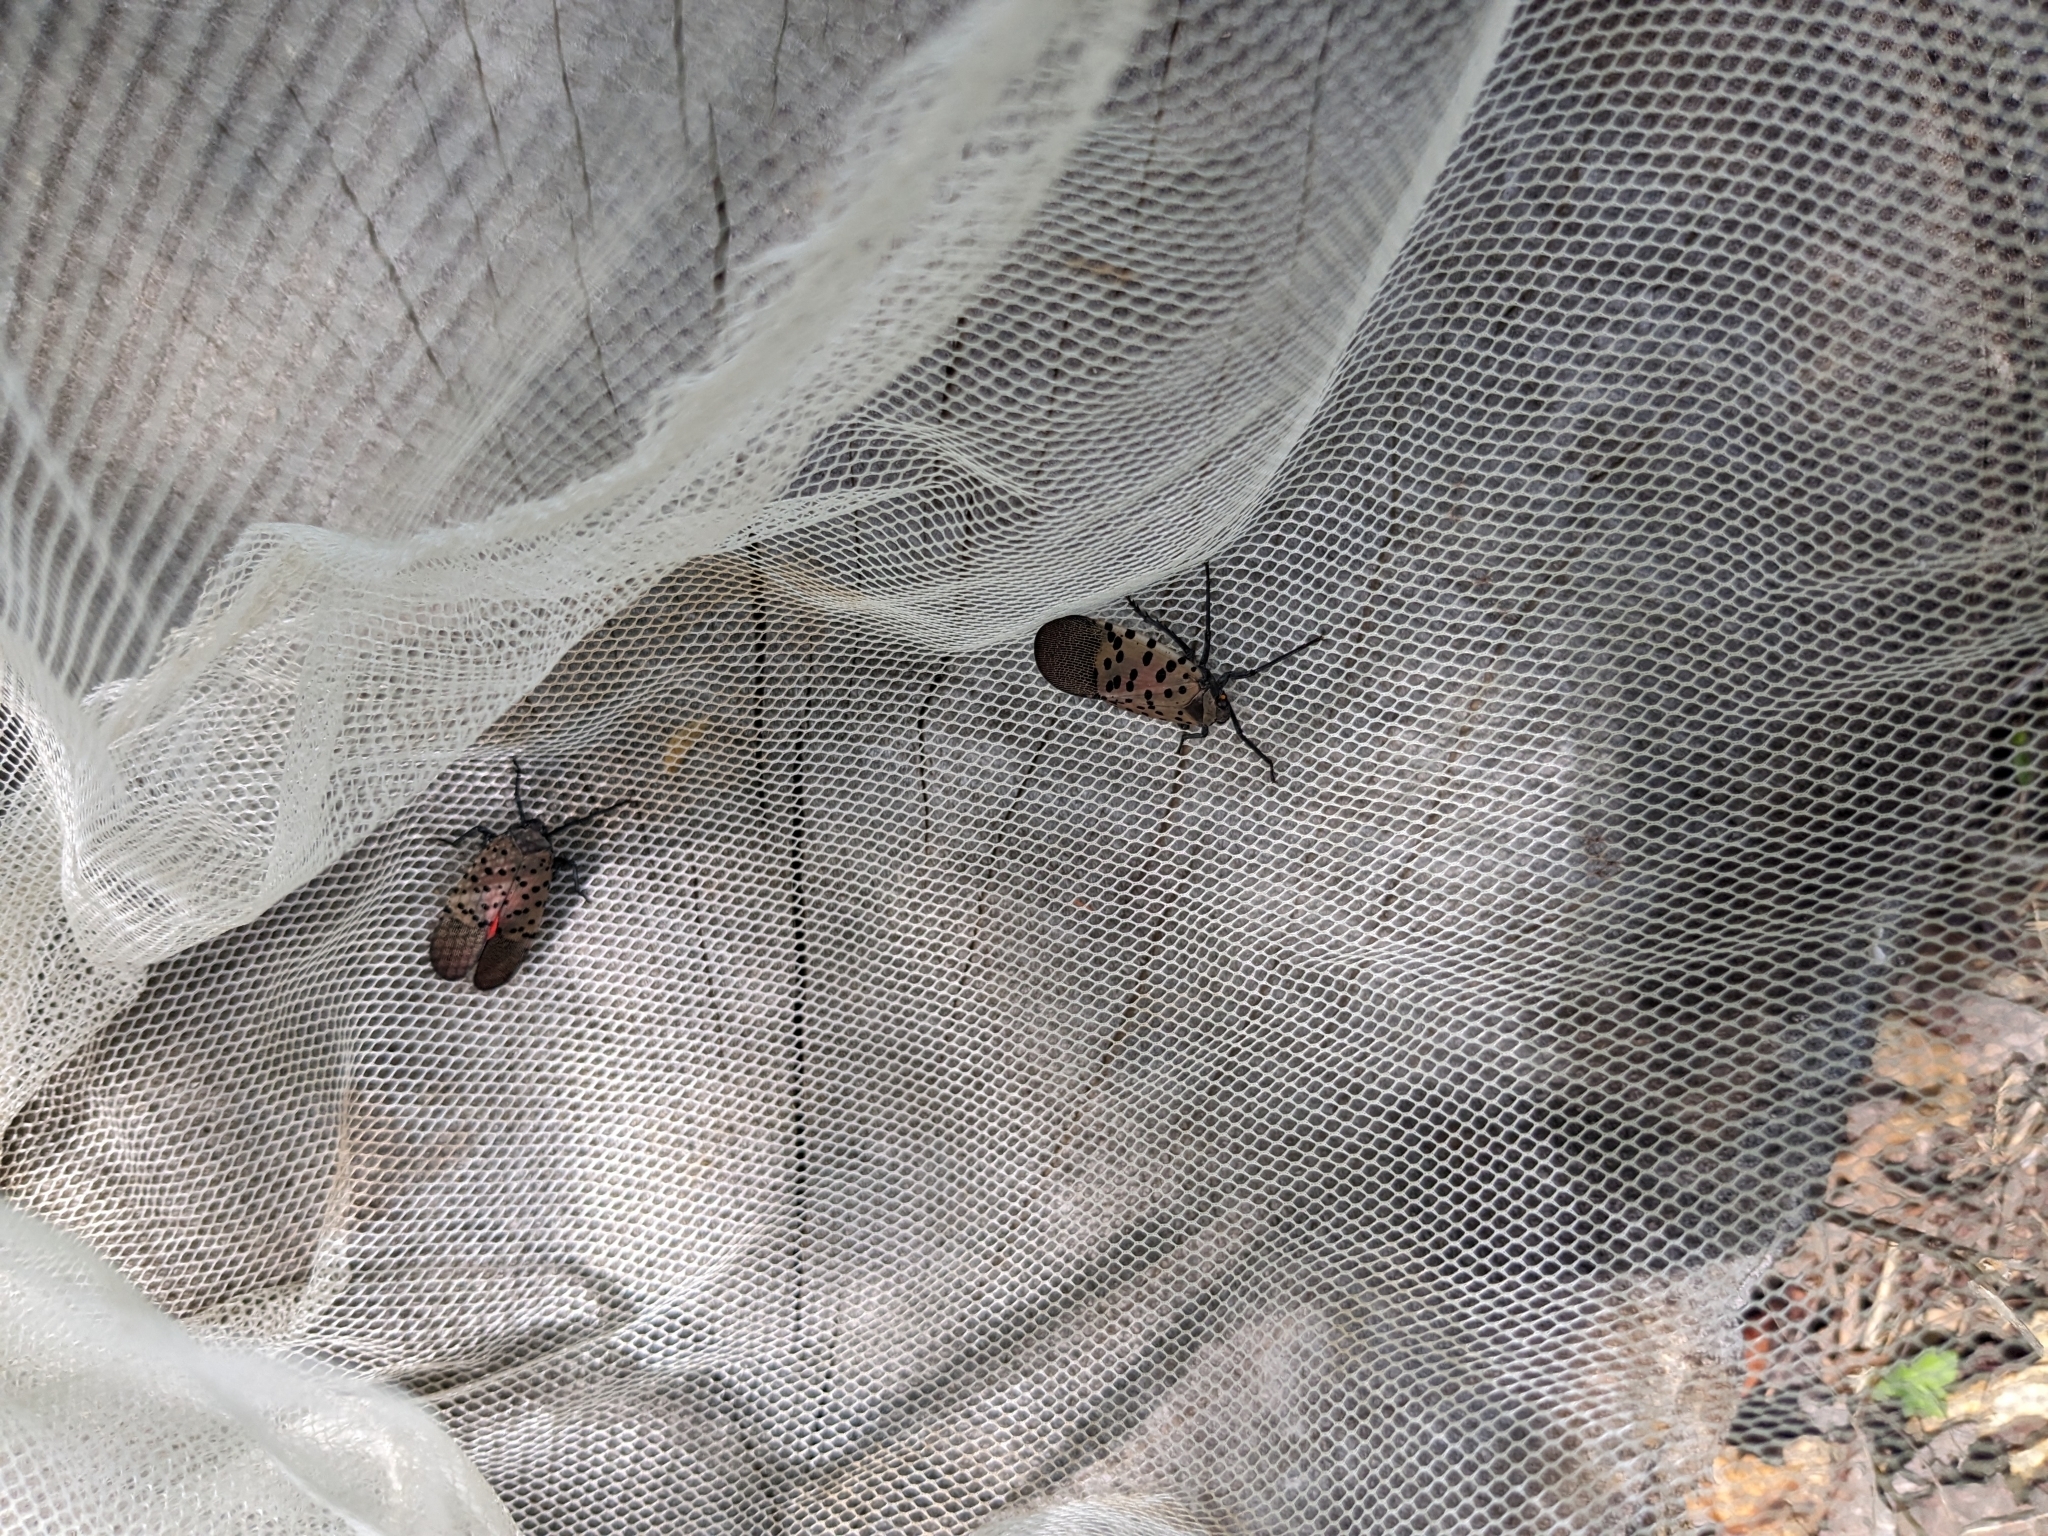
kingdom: Animalia
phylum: Arthropoda
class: Insecta
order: Hemiptera
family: Fulgoridae
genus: Lycorma
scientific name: Lycorma delicatula
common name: Spotted lanternfly
